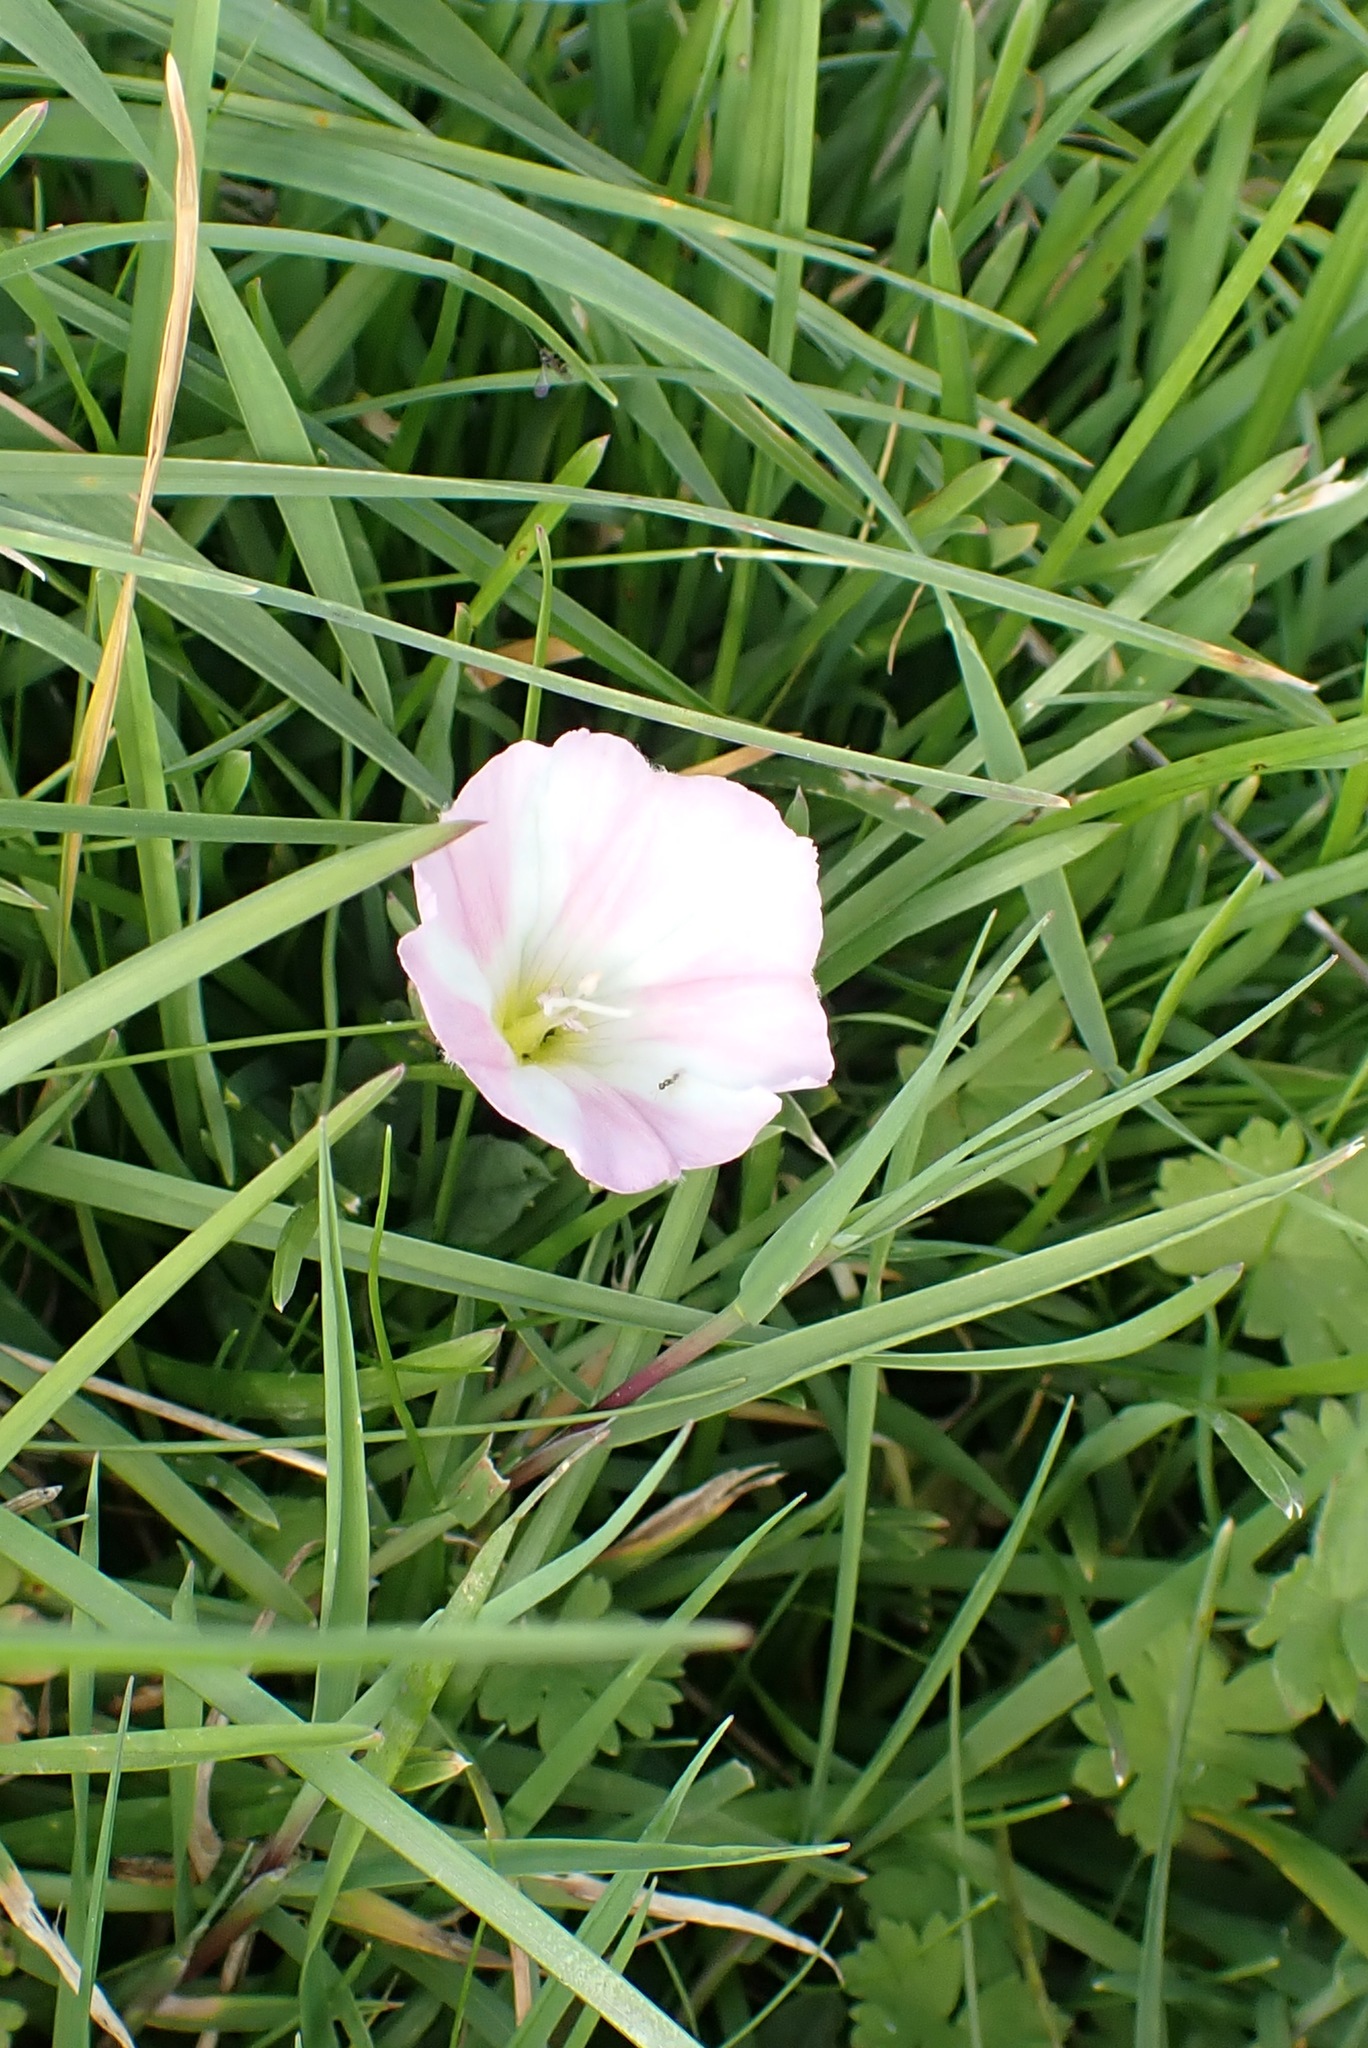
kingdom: Plantae
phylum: Tracheophyta
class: Magnoliopsida
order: Solanales
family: Convolvulaceae
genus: Convolvulus
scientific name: Convolvulus arvensis
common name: Field bindweed
